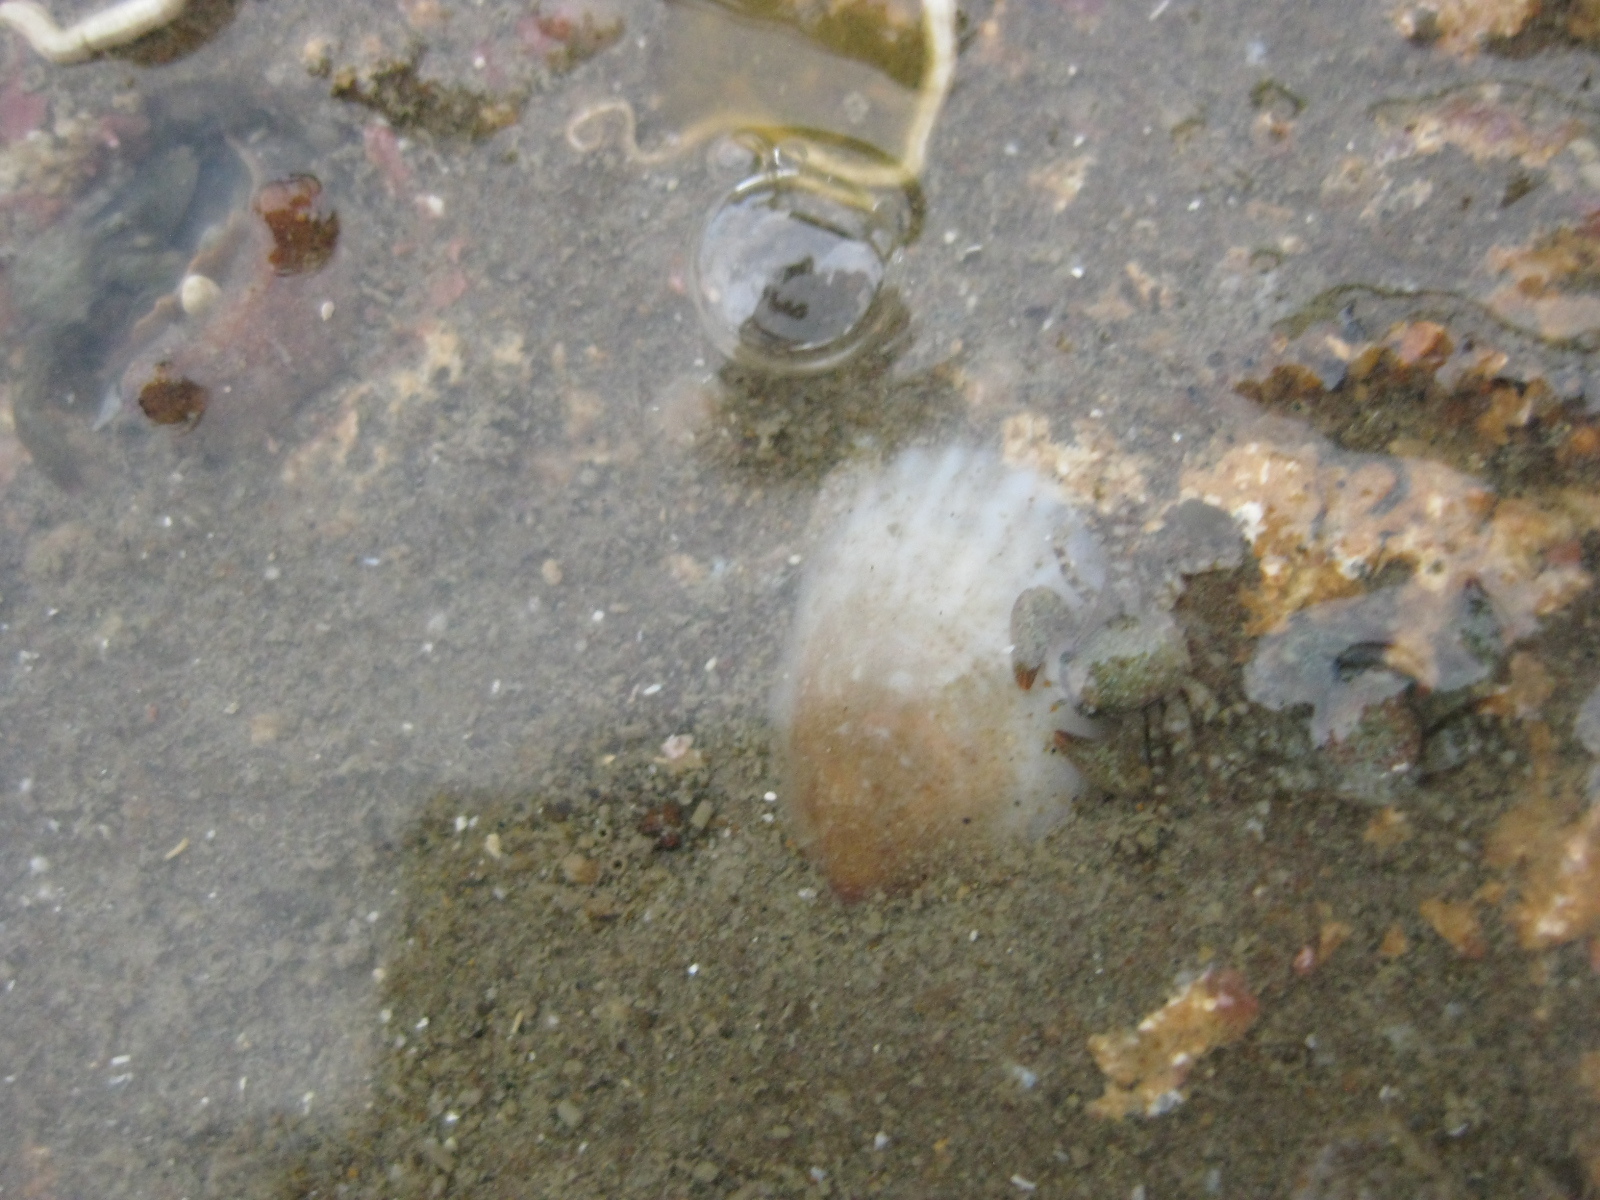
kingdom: Animalia
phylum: Mollusca
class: Gastropoda
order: Littorinimorpha
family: Calyptraeidae
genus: Maoricrypta
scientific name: Maoricrypta costata
